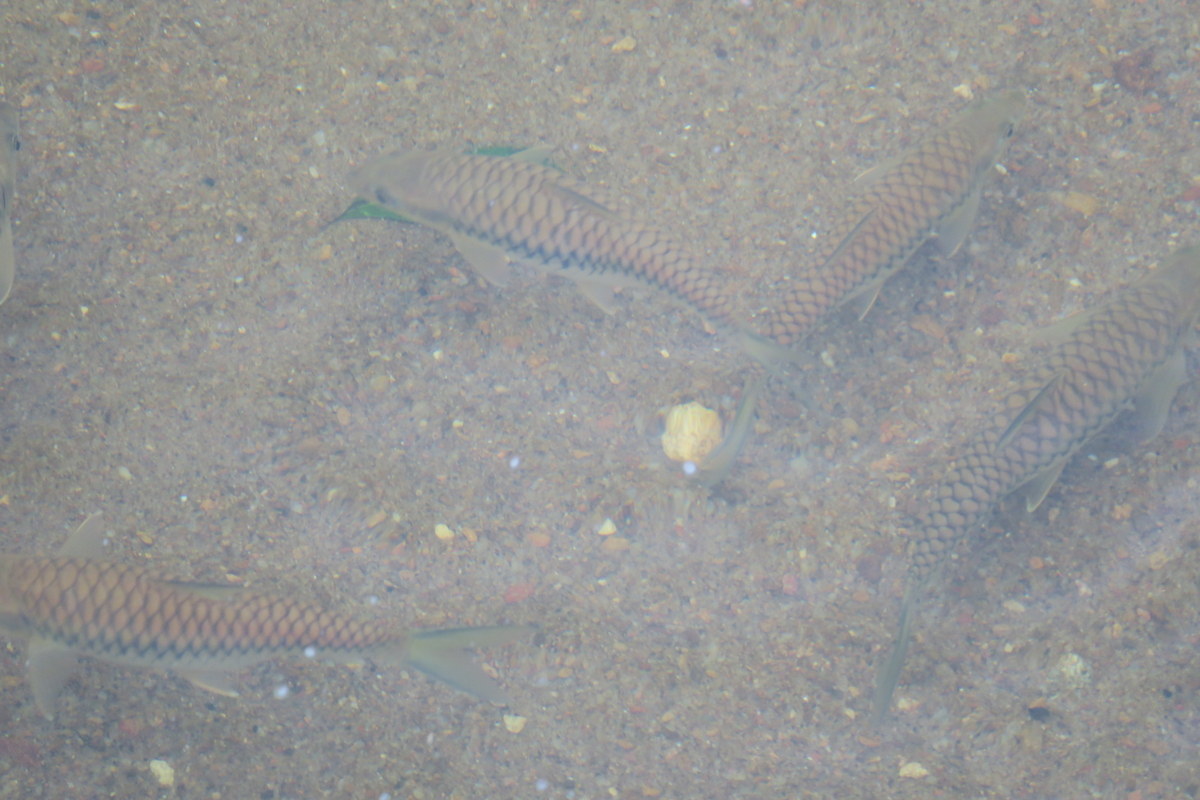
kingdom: Animalia
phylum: Chordata
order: Cypriniformes
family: Cyprinidae
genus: Tor
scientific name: Tor khudree
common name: Black mahseer
